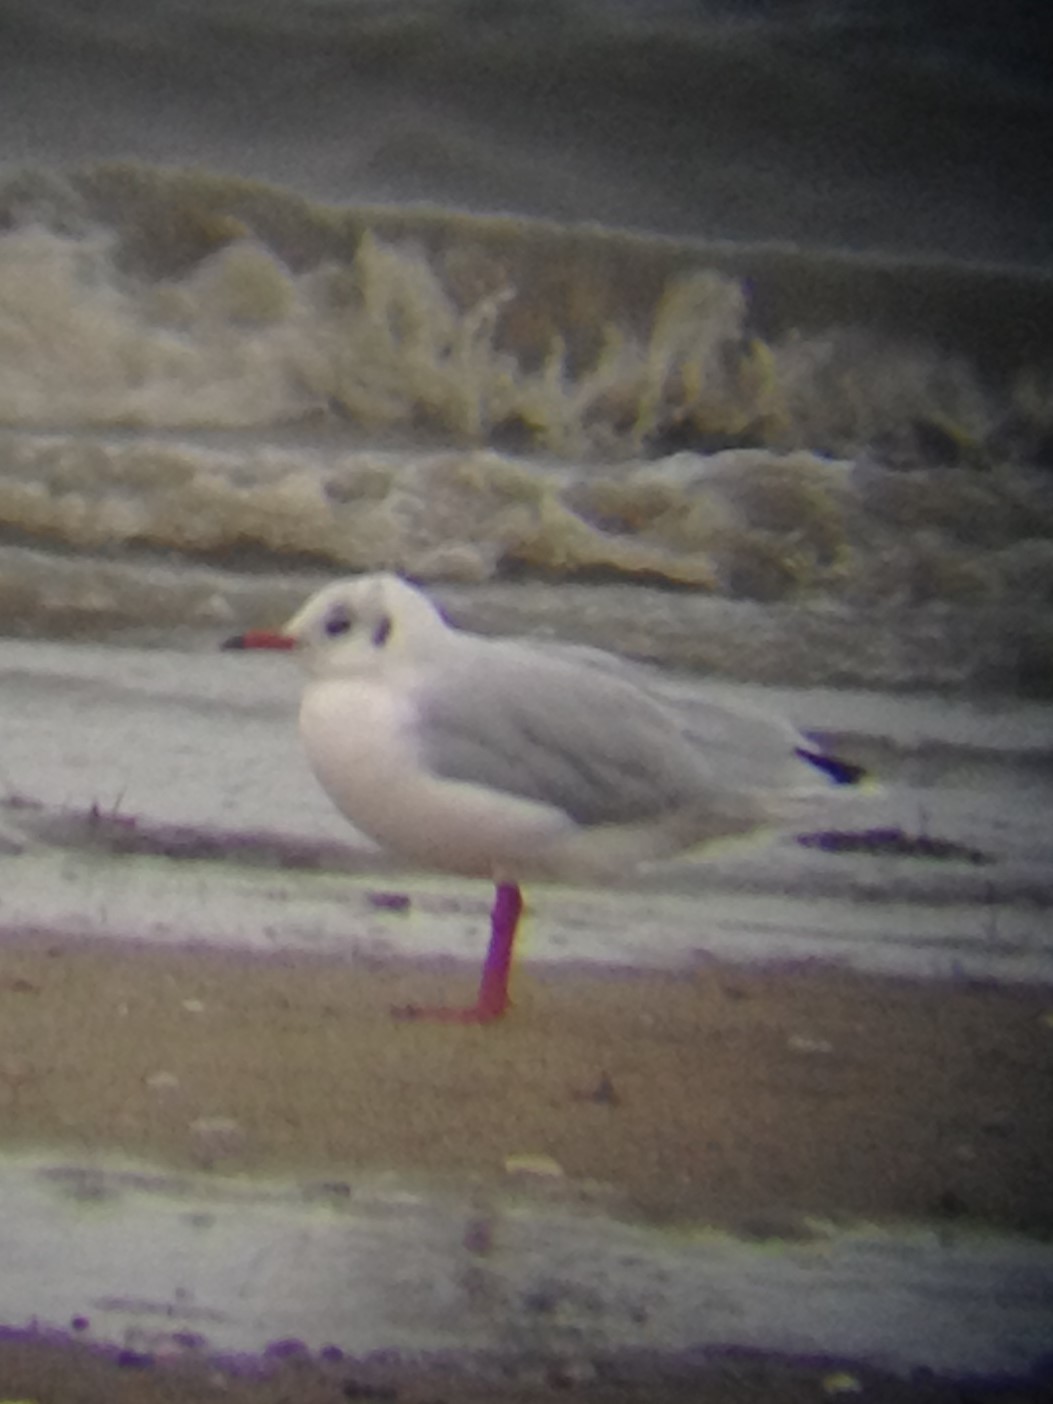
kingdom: Animalia
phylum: Chordata
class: Aves
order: Charadriiformes
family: Laridae
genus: Chroicocephalus
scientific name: Chroicocephalus ridibundus
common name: Black-headed gull
